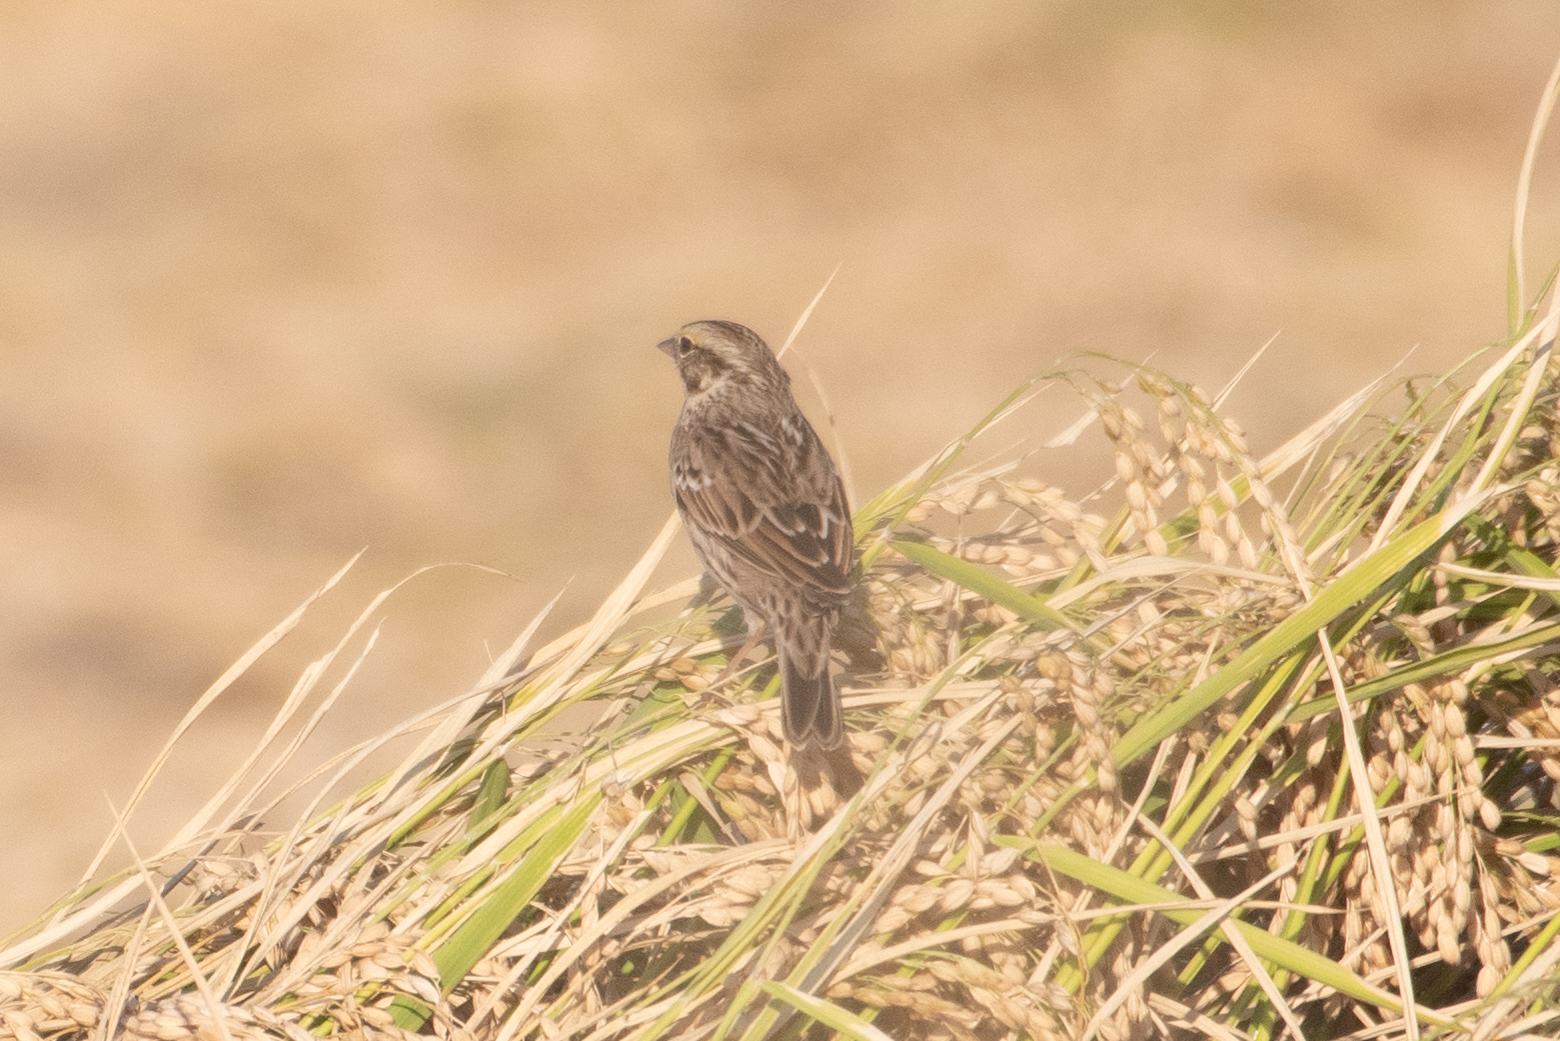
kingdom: Animalia
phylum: Chordata
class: Aves
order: Passeriformes
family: Passerellidae
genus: Passerculus
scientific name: Passerculus sandwichensis
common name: Savannah sparrow
